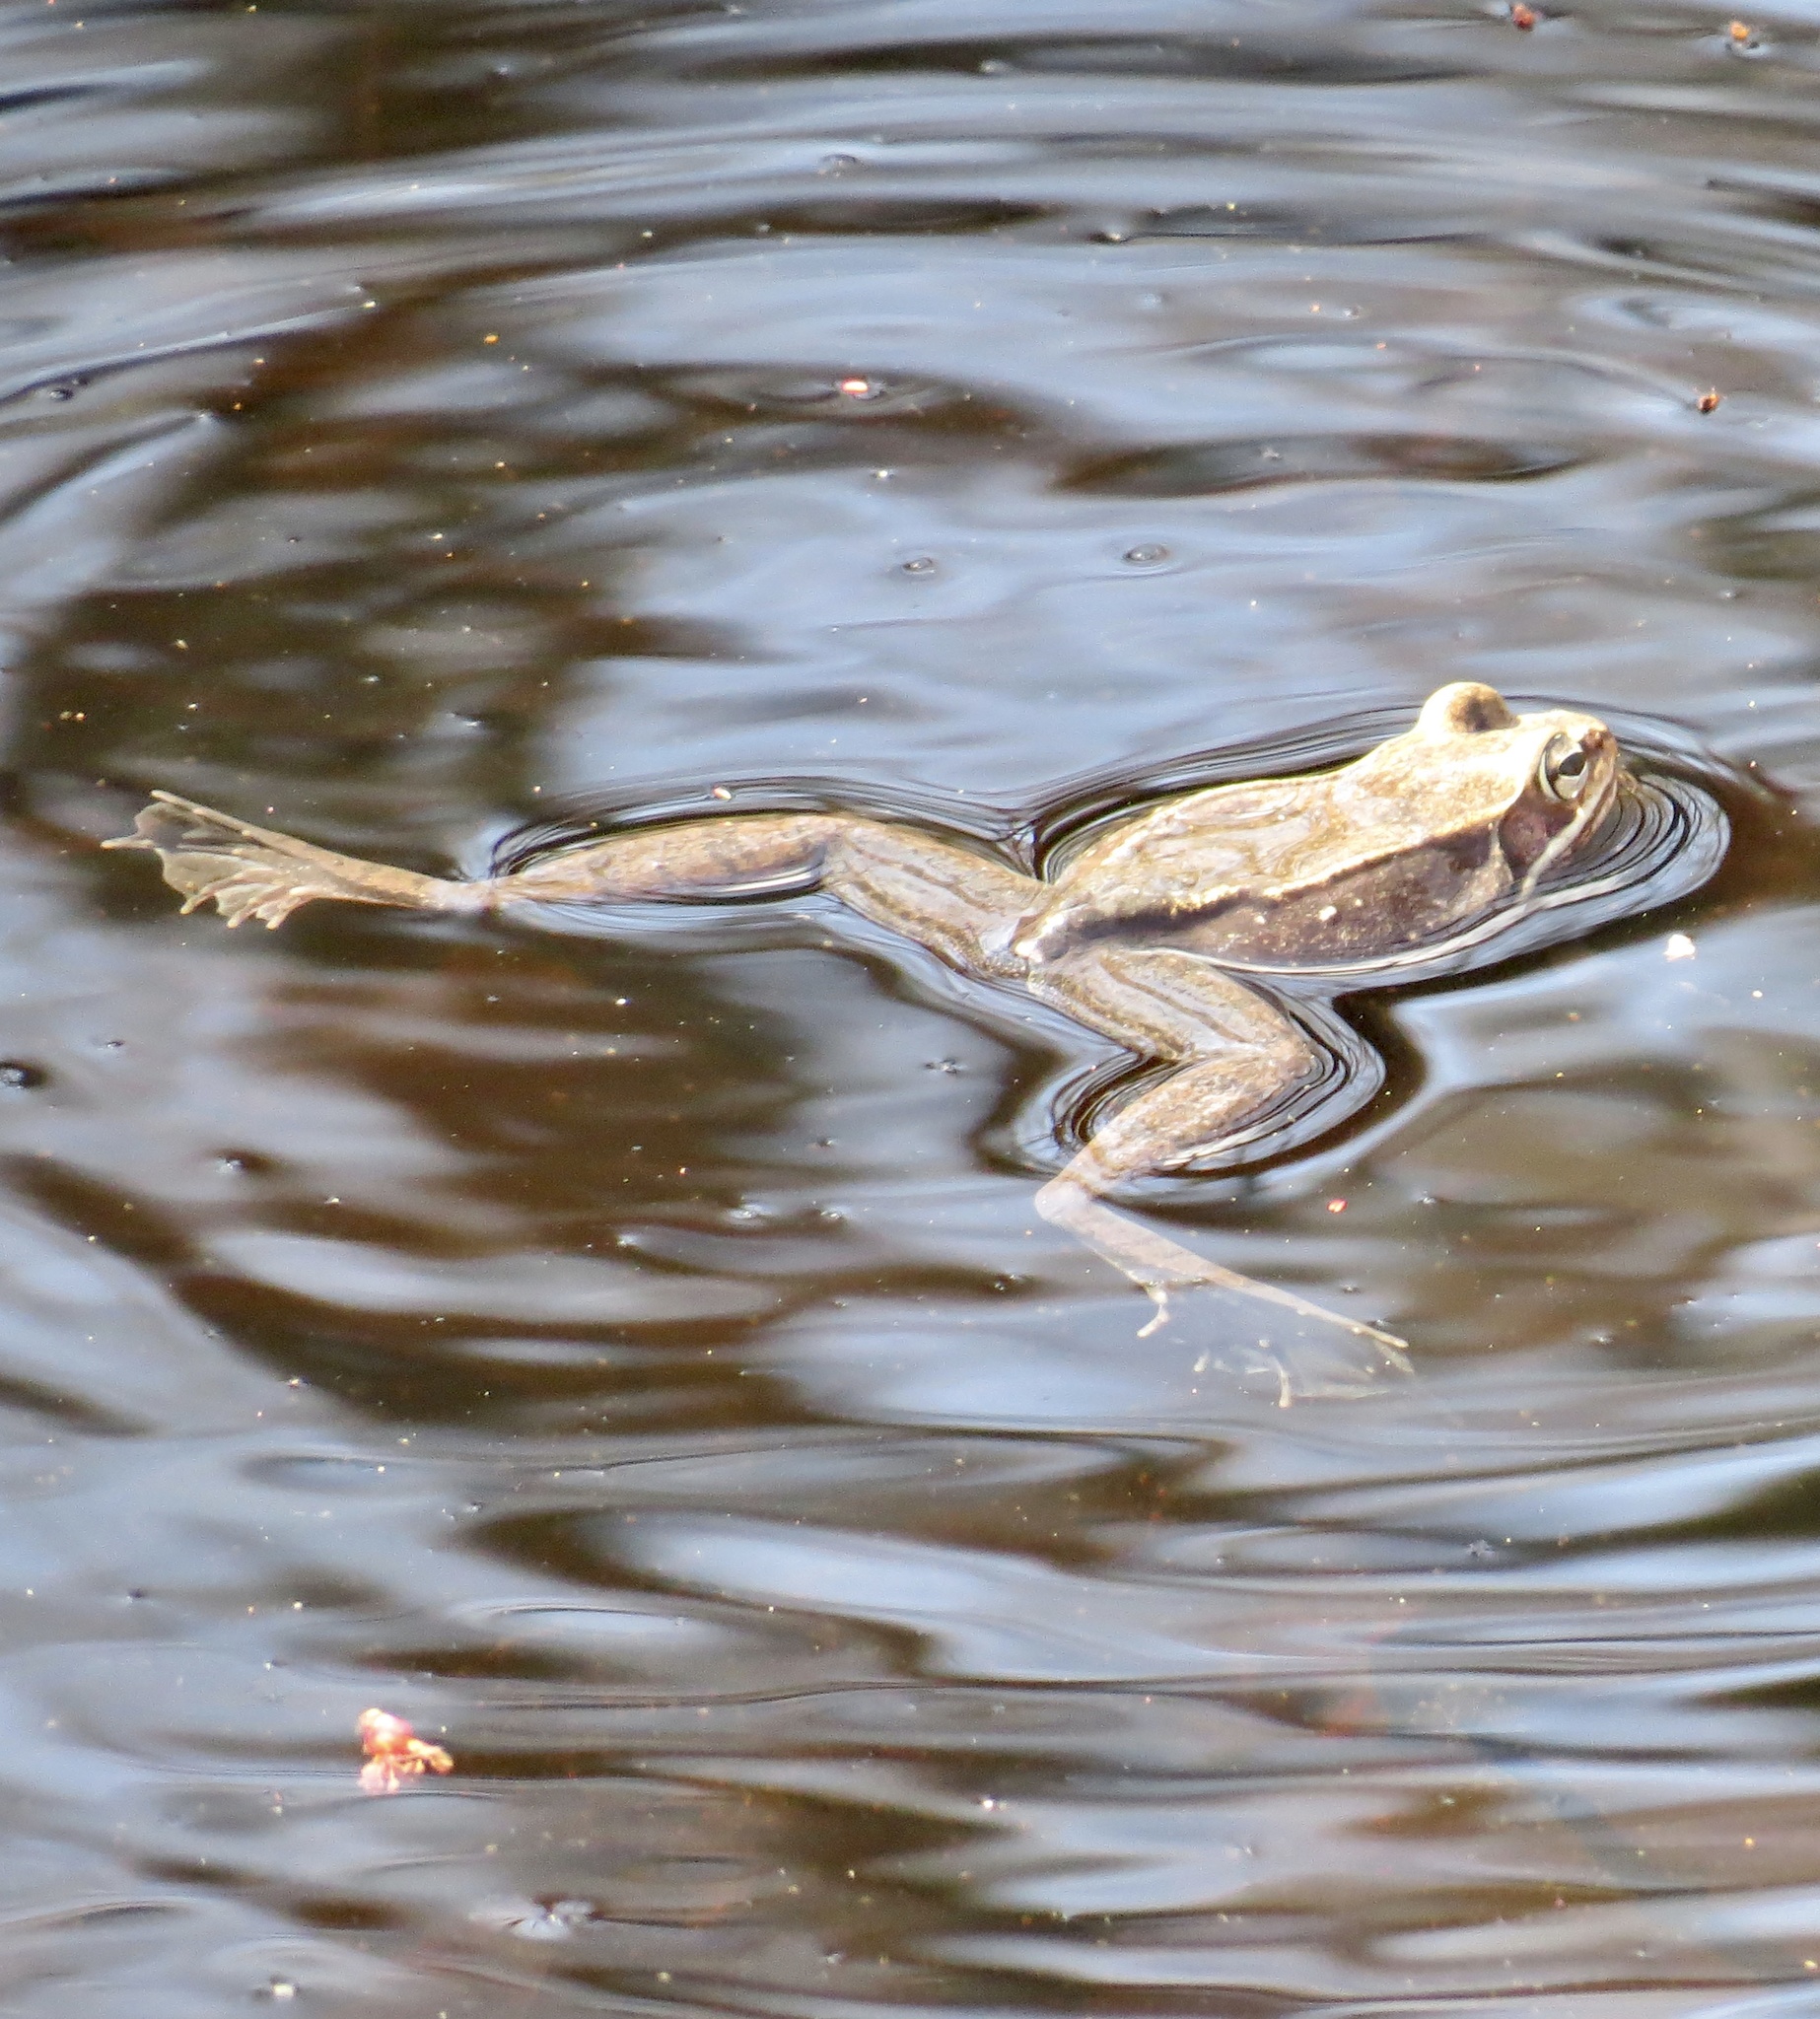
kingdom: Animalia
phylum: Chordata
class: Amphibia
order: Anura
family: Ranidae
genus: Lithobates
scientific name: Lithobates sylvaticus
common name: Wood frog
